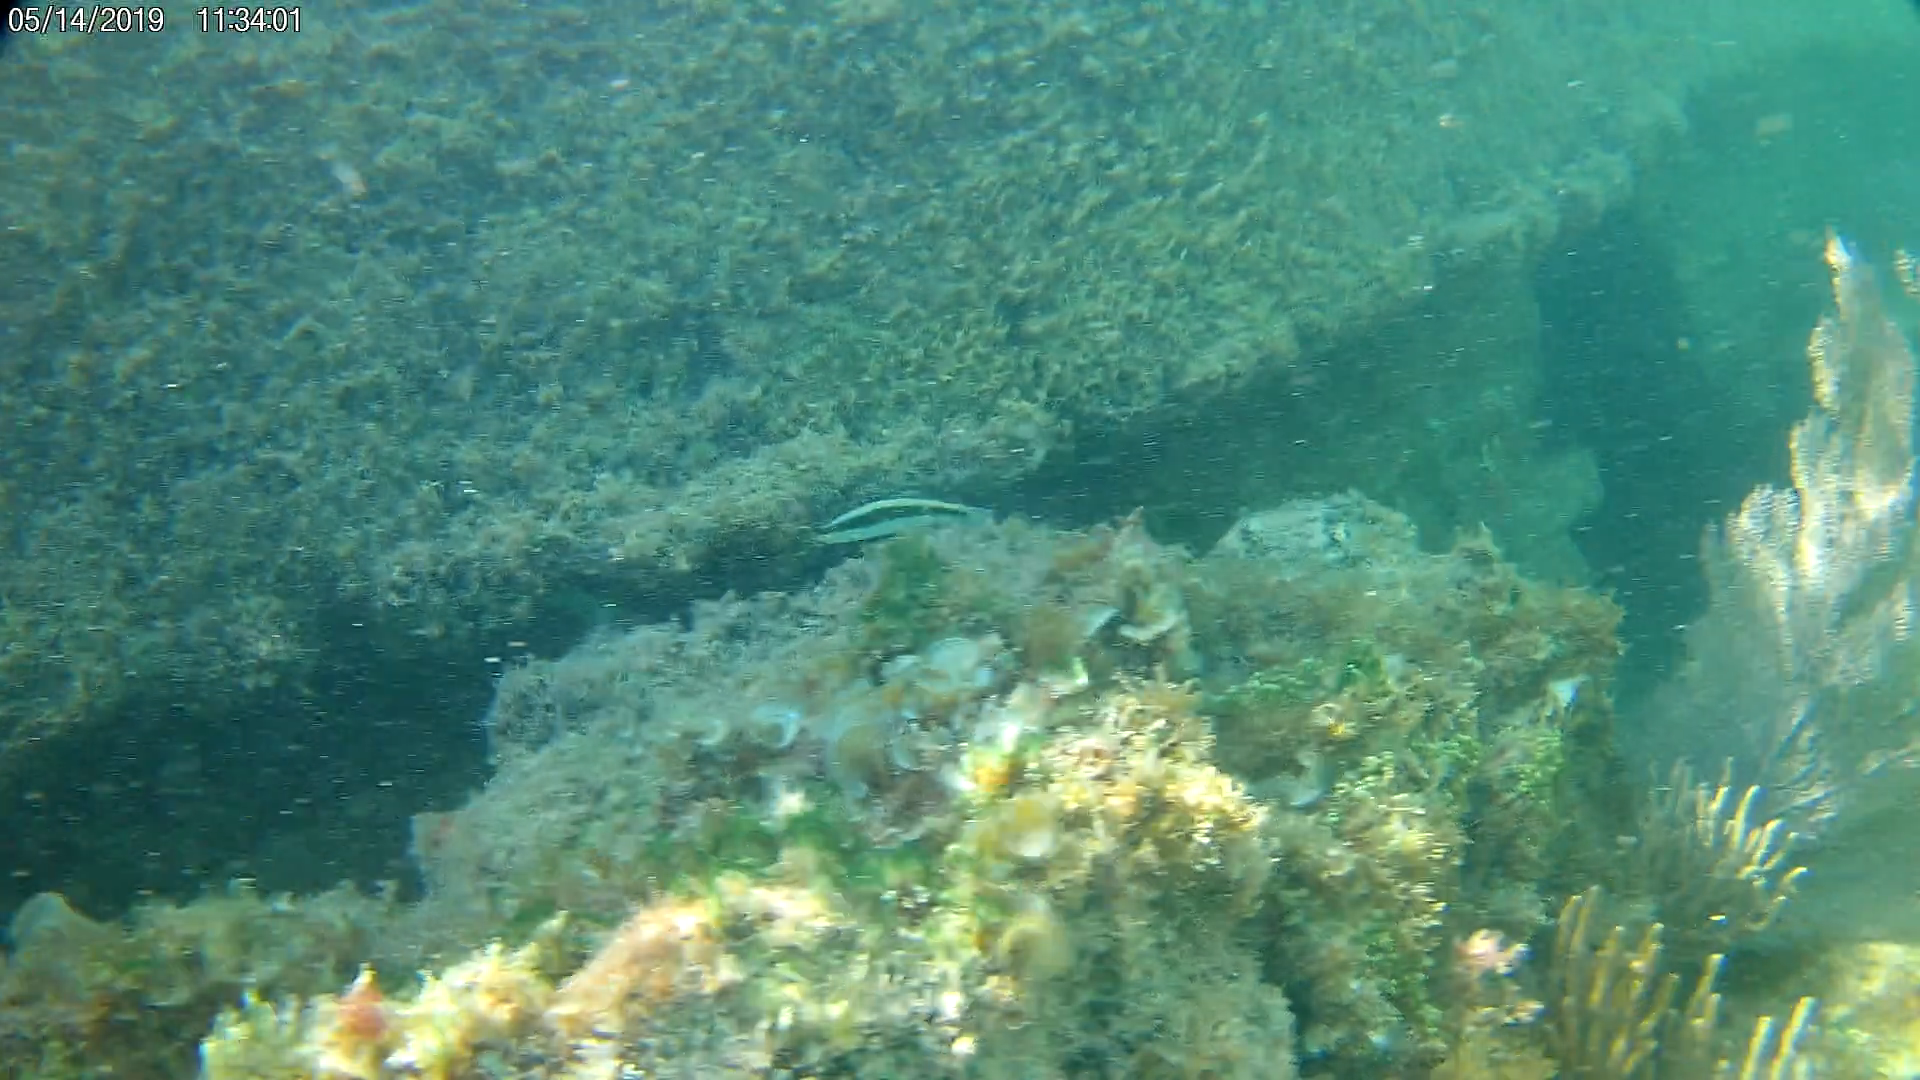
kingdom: Animalia
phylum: Chordata
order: Perciformes
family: Labridae
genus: Thalassoma
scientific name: Thalassoma bifasciatum
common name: Bluehead wrasse
